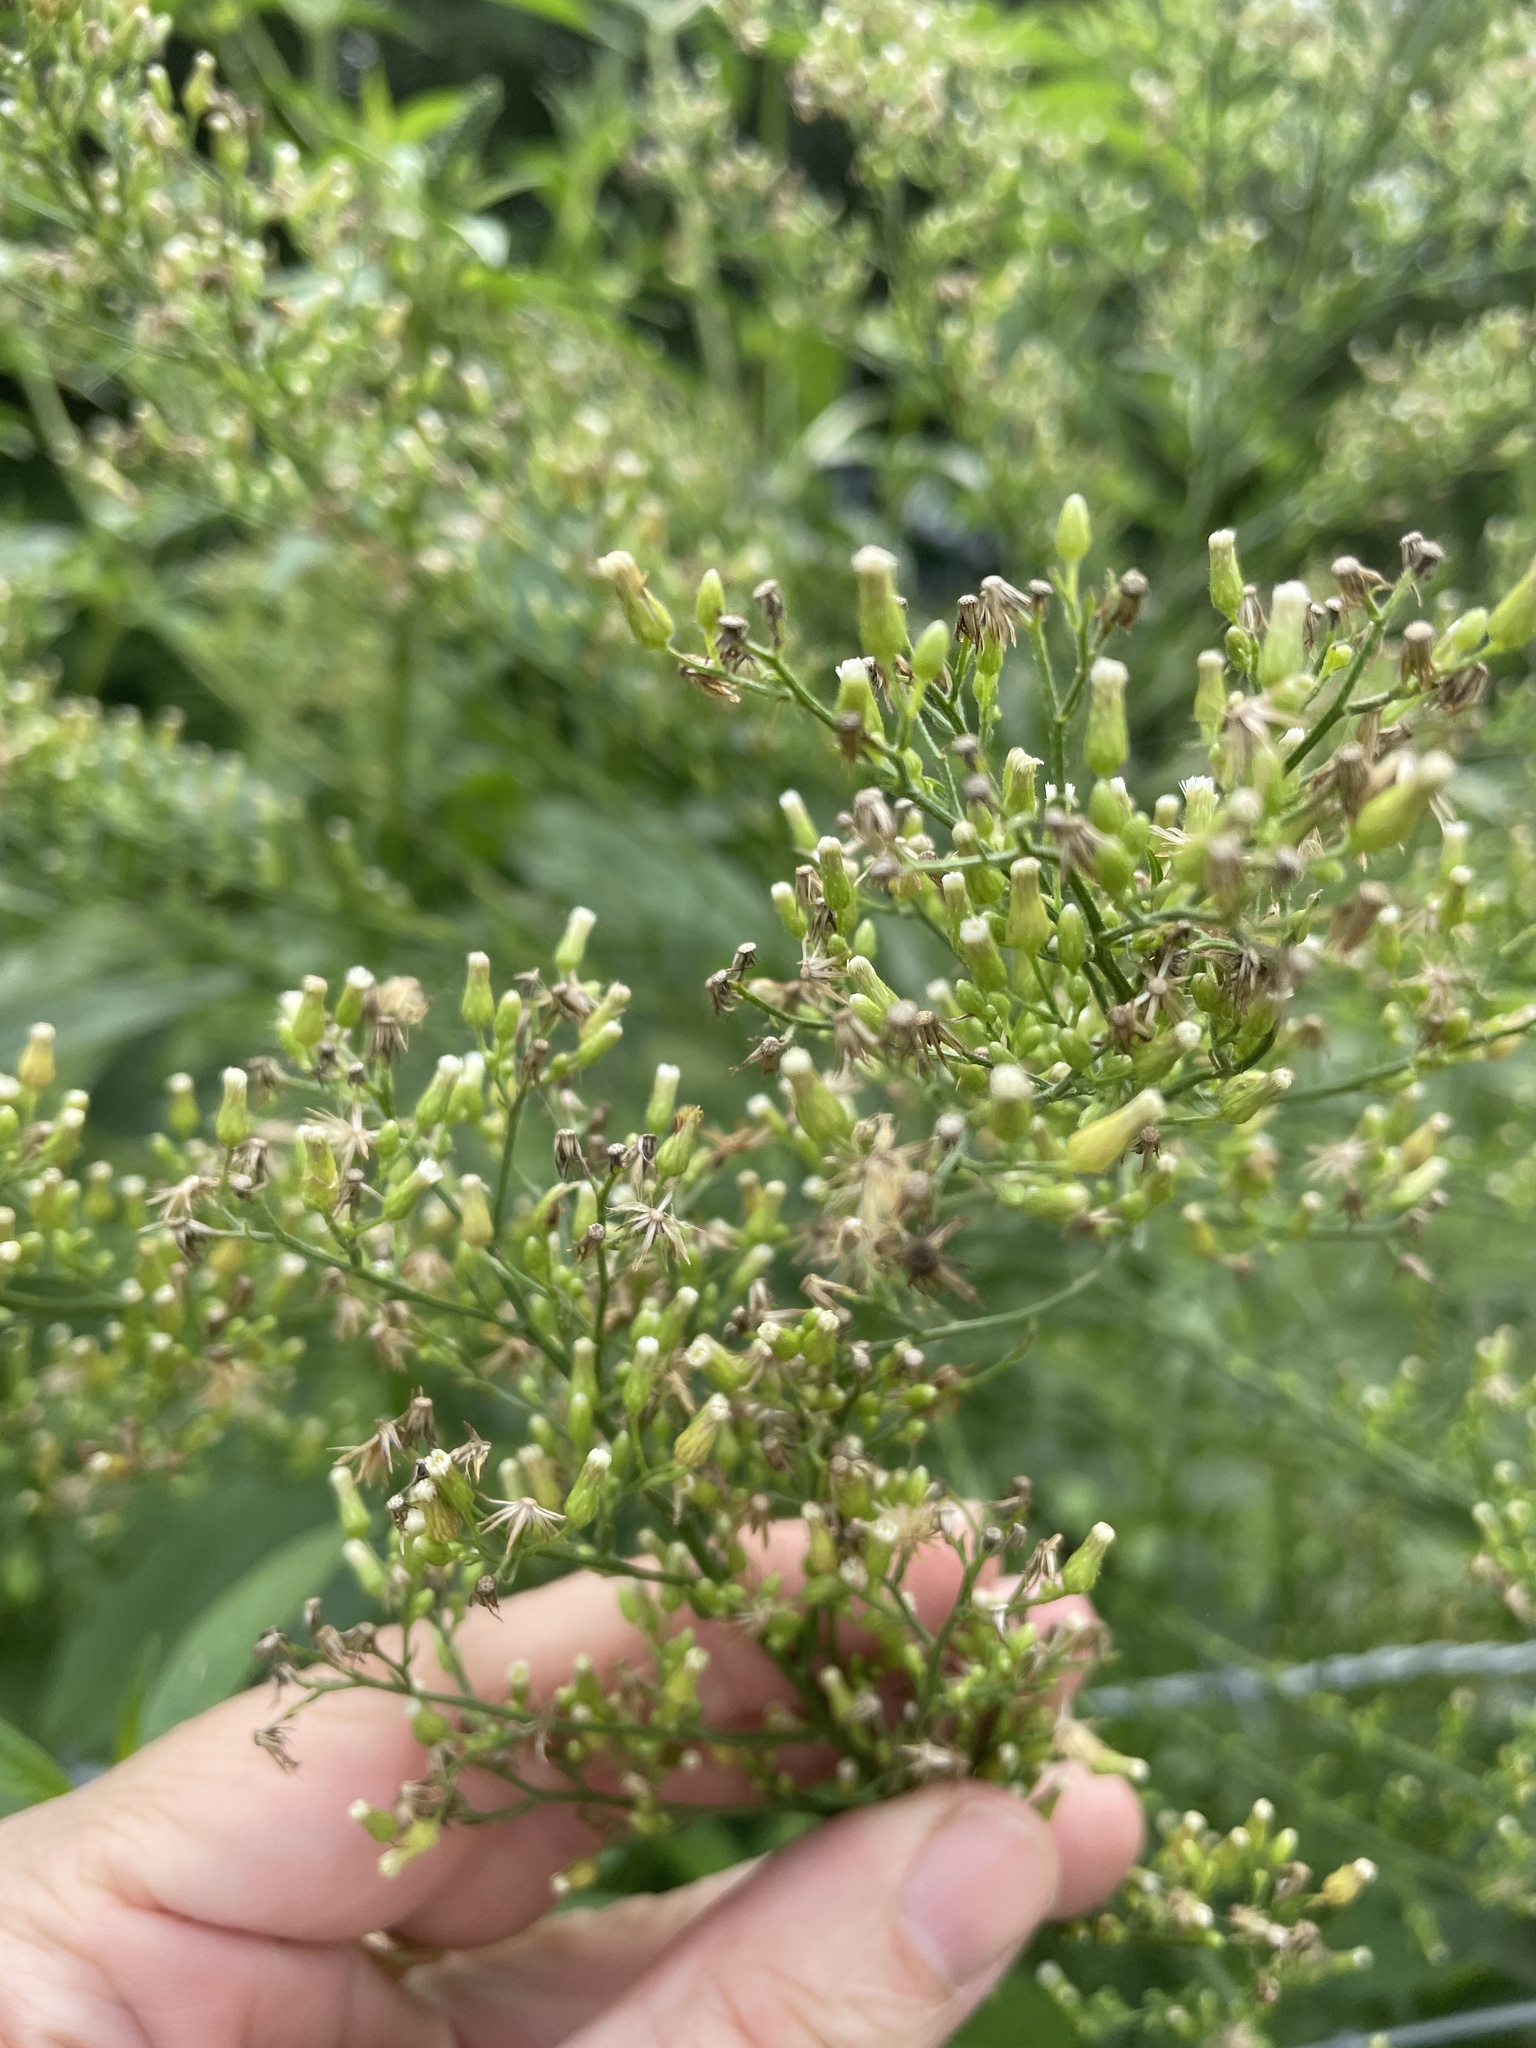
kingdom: Plantae
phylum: Tracheophyta
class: Magnoliopsida
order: Asterales
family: Asteraceae
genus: Erigeron
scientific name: Erigeron canadensis
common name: Canadian fleabane
